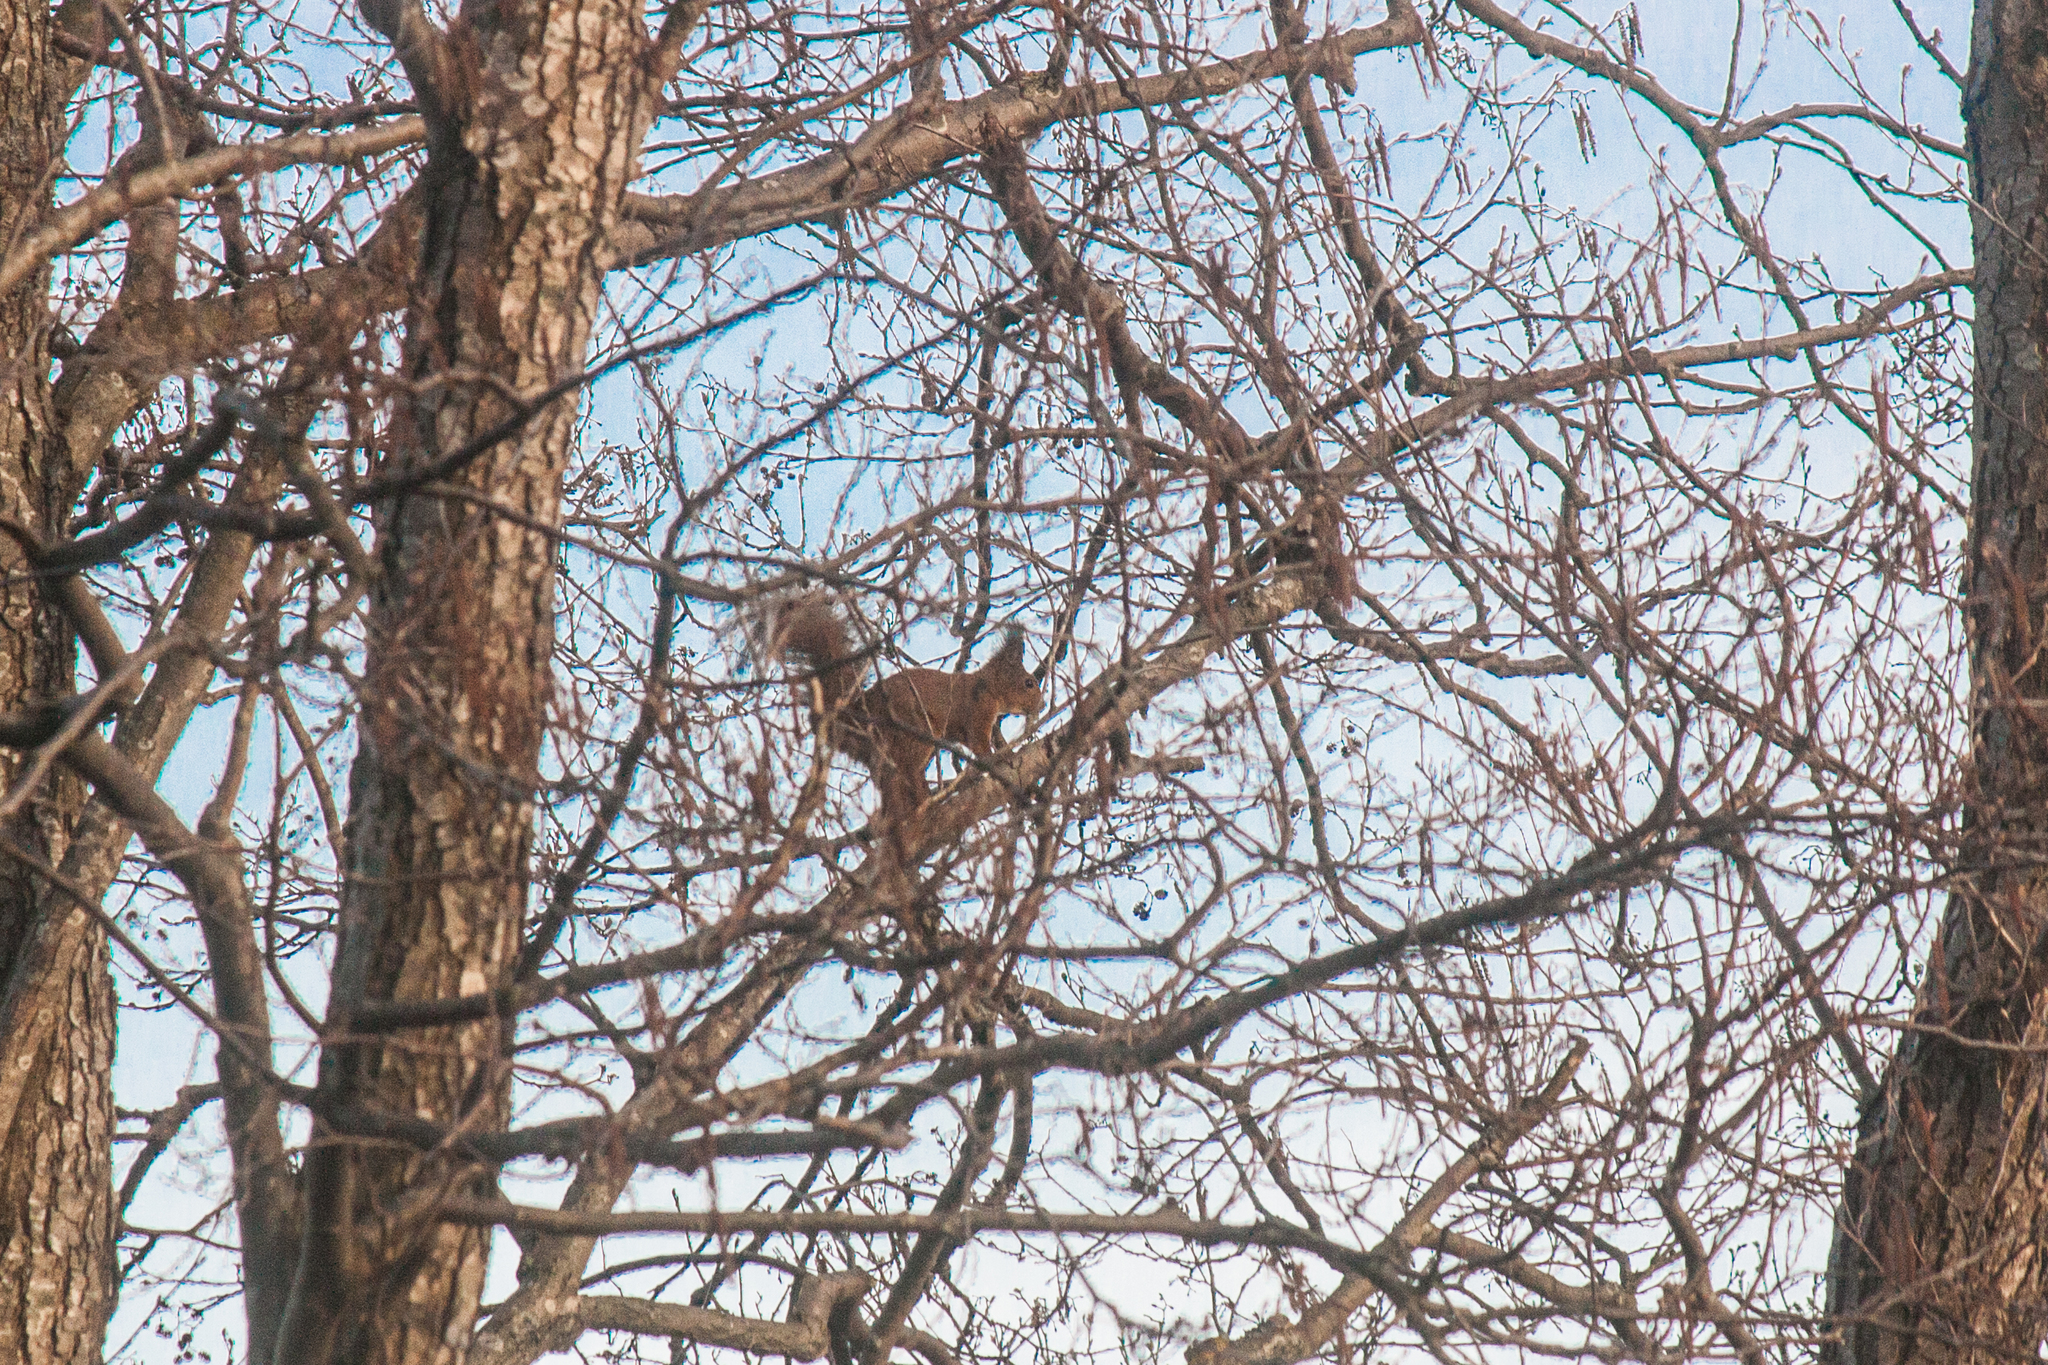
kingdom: Animalia
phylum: Chordata
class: Mammalia
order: Rodentia
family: Sciuridae
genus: Sciurus
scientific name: Sciurus vulgaris
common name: Eurasian red squirrel
